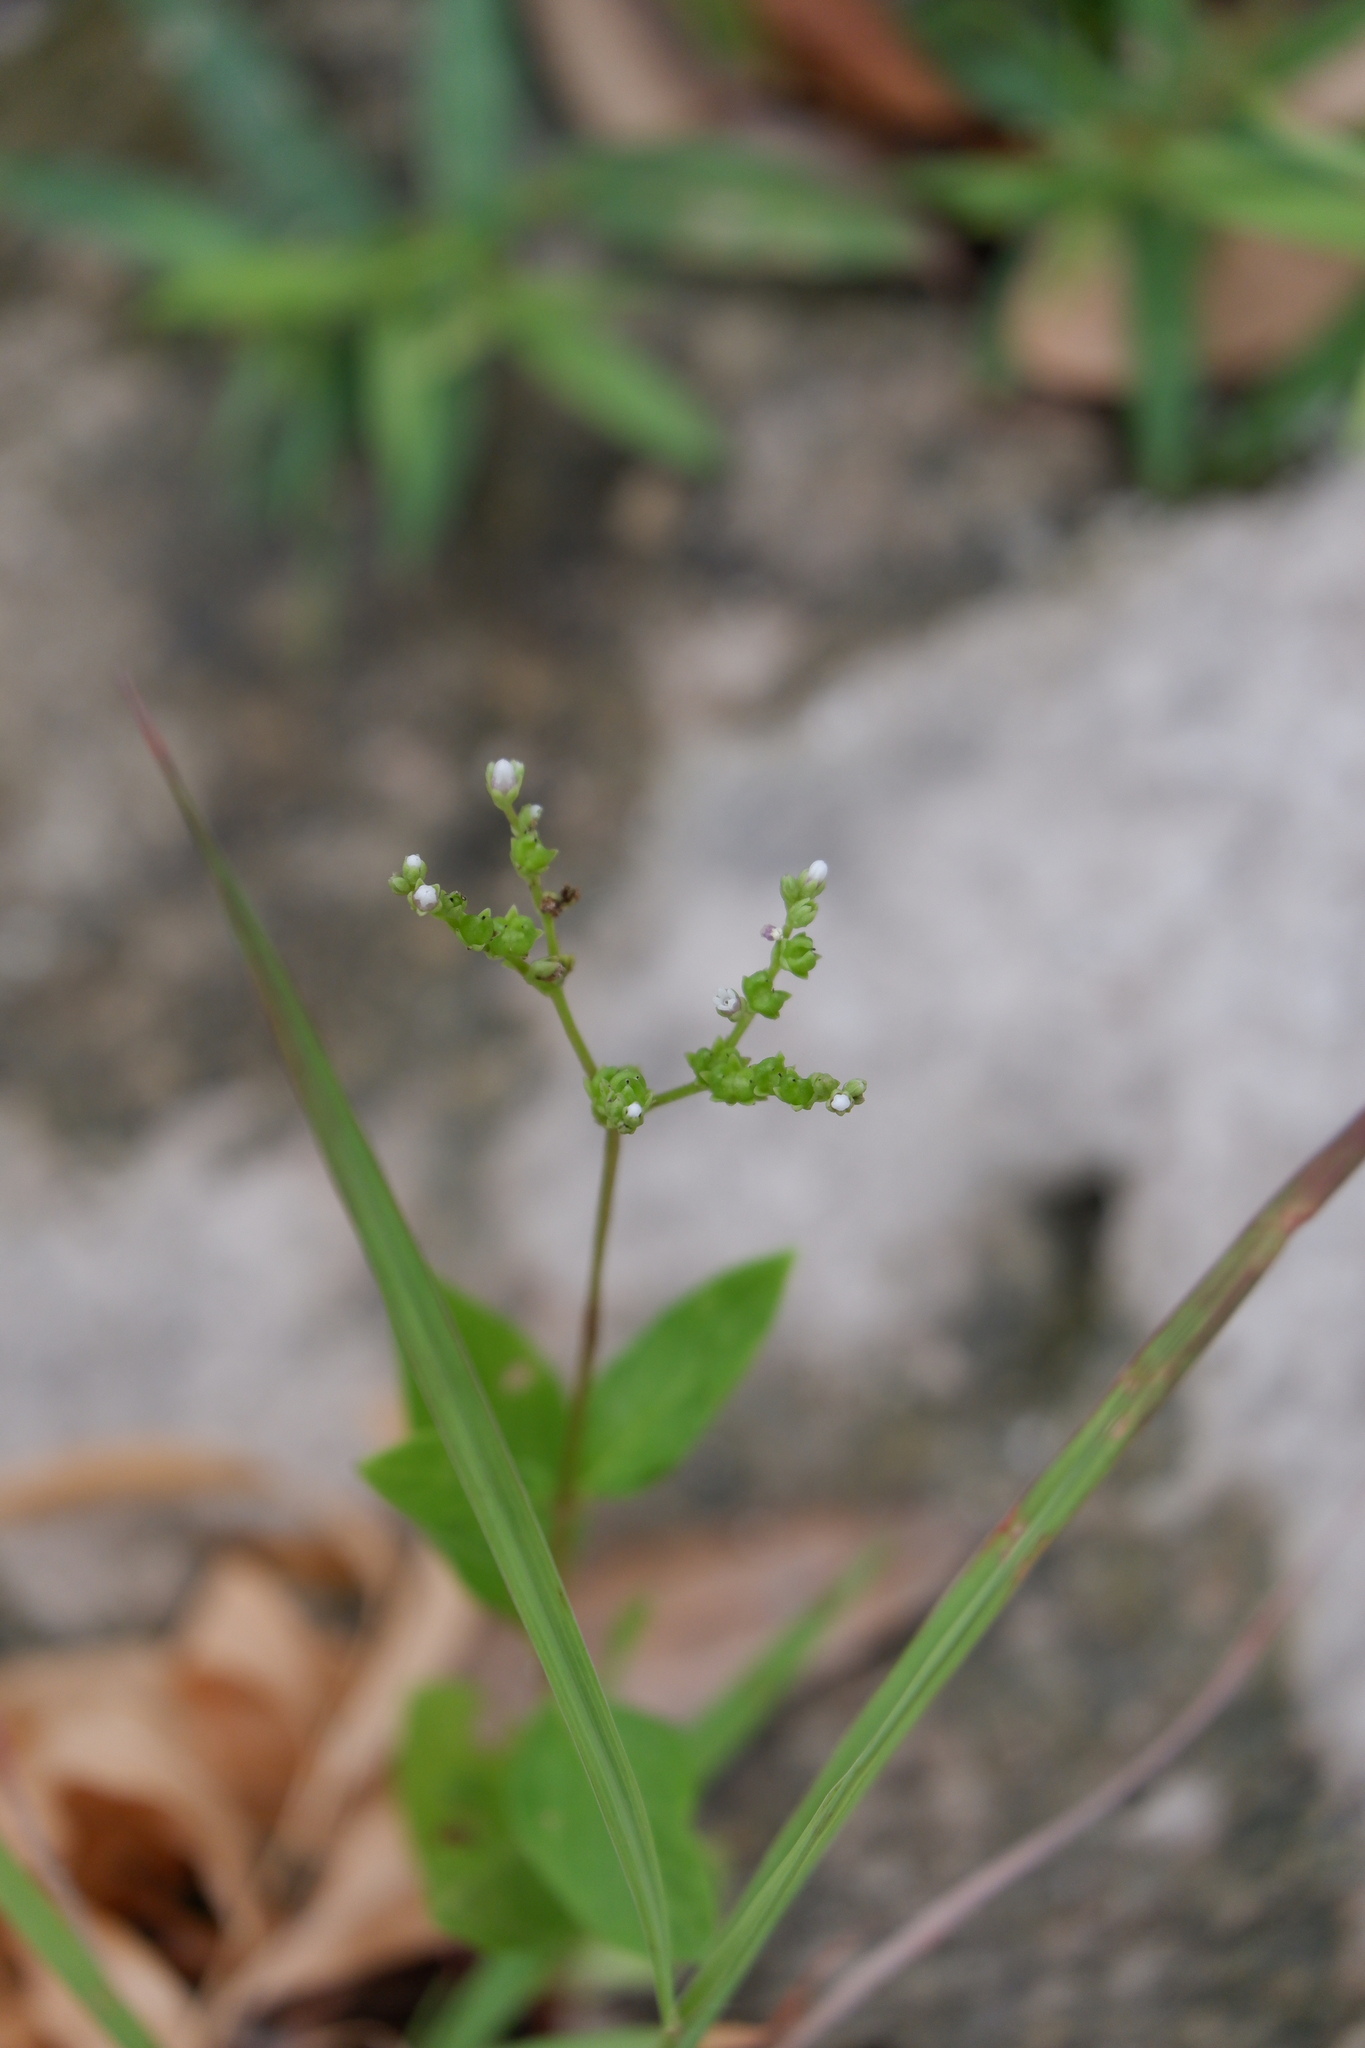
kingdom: Plantae
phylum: Tracheophyta
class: Magnoliopsida
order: Gentianales
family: Loganiaceae
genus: Mitreola
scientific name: Mitreola petiolata
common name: Lax hornpod
